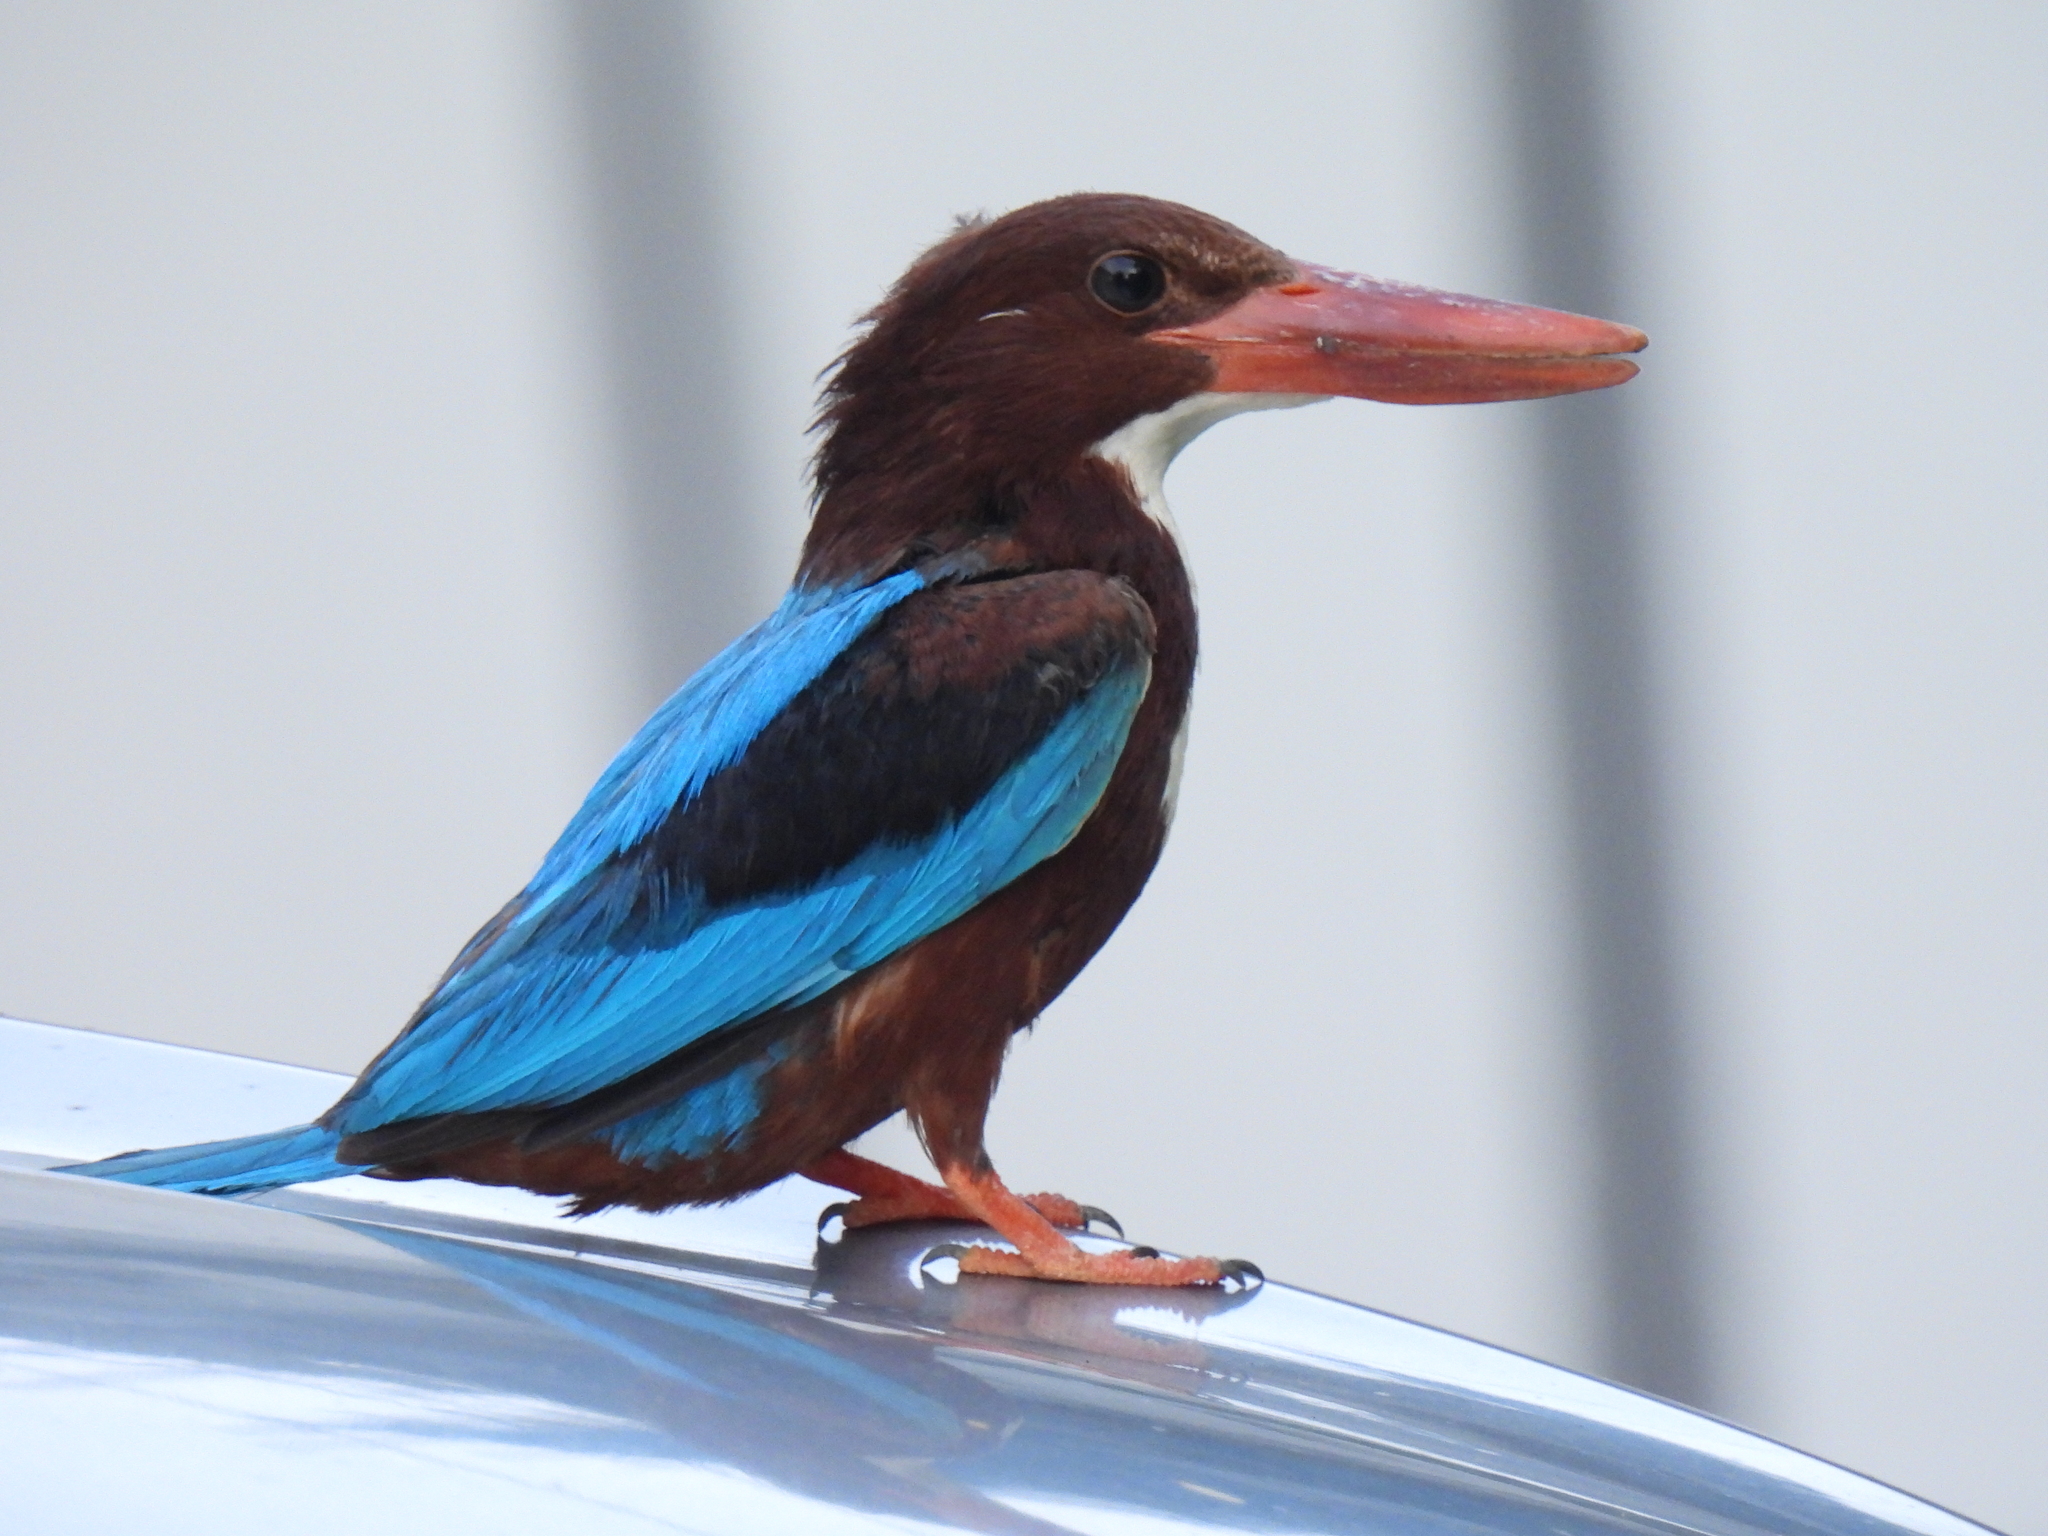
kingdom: Animalia
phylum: Chordata
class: Aves
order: Coraciiformes
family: Alcedinidae
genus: Halcyon
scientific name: Halcyon smyrnensis
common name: White-throated kingfisher
